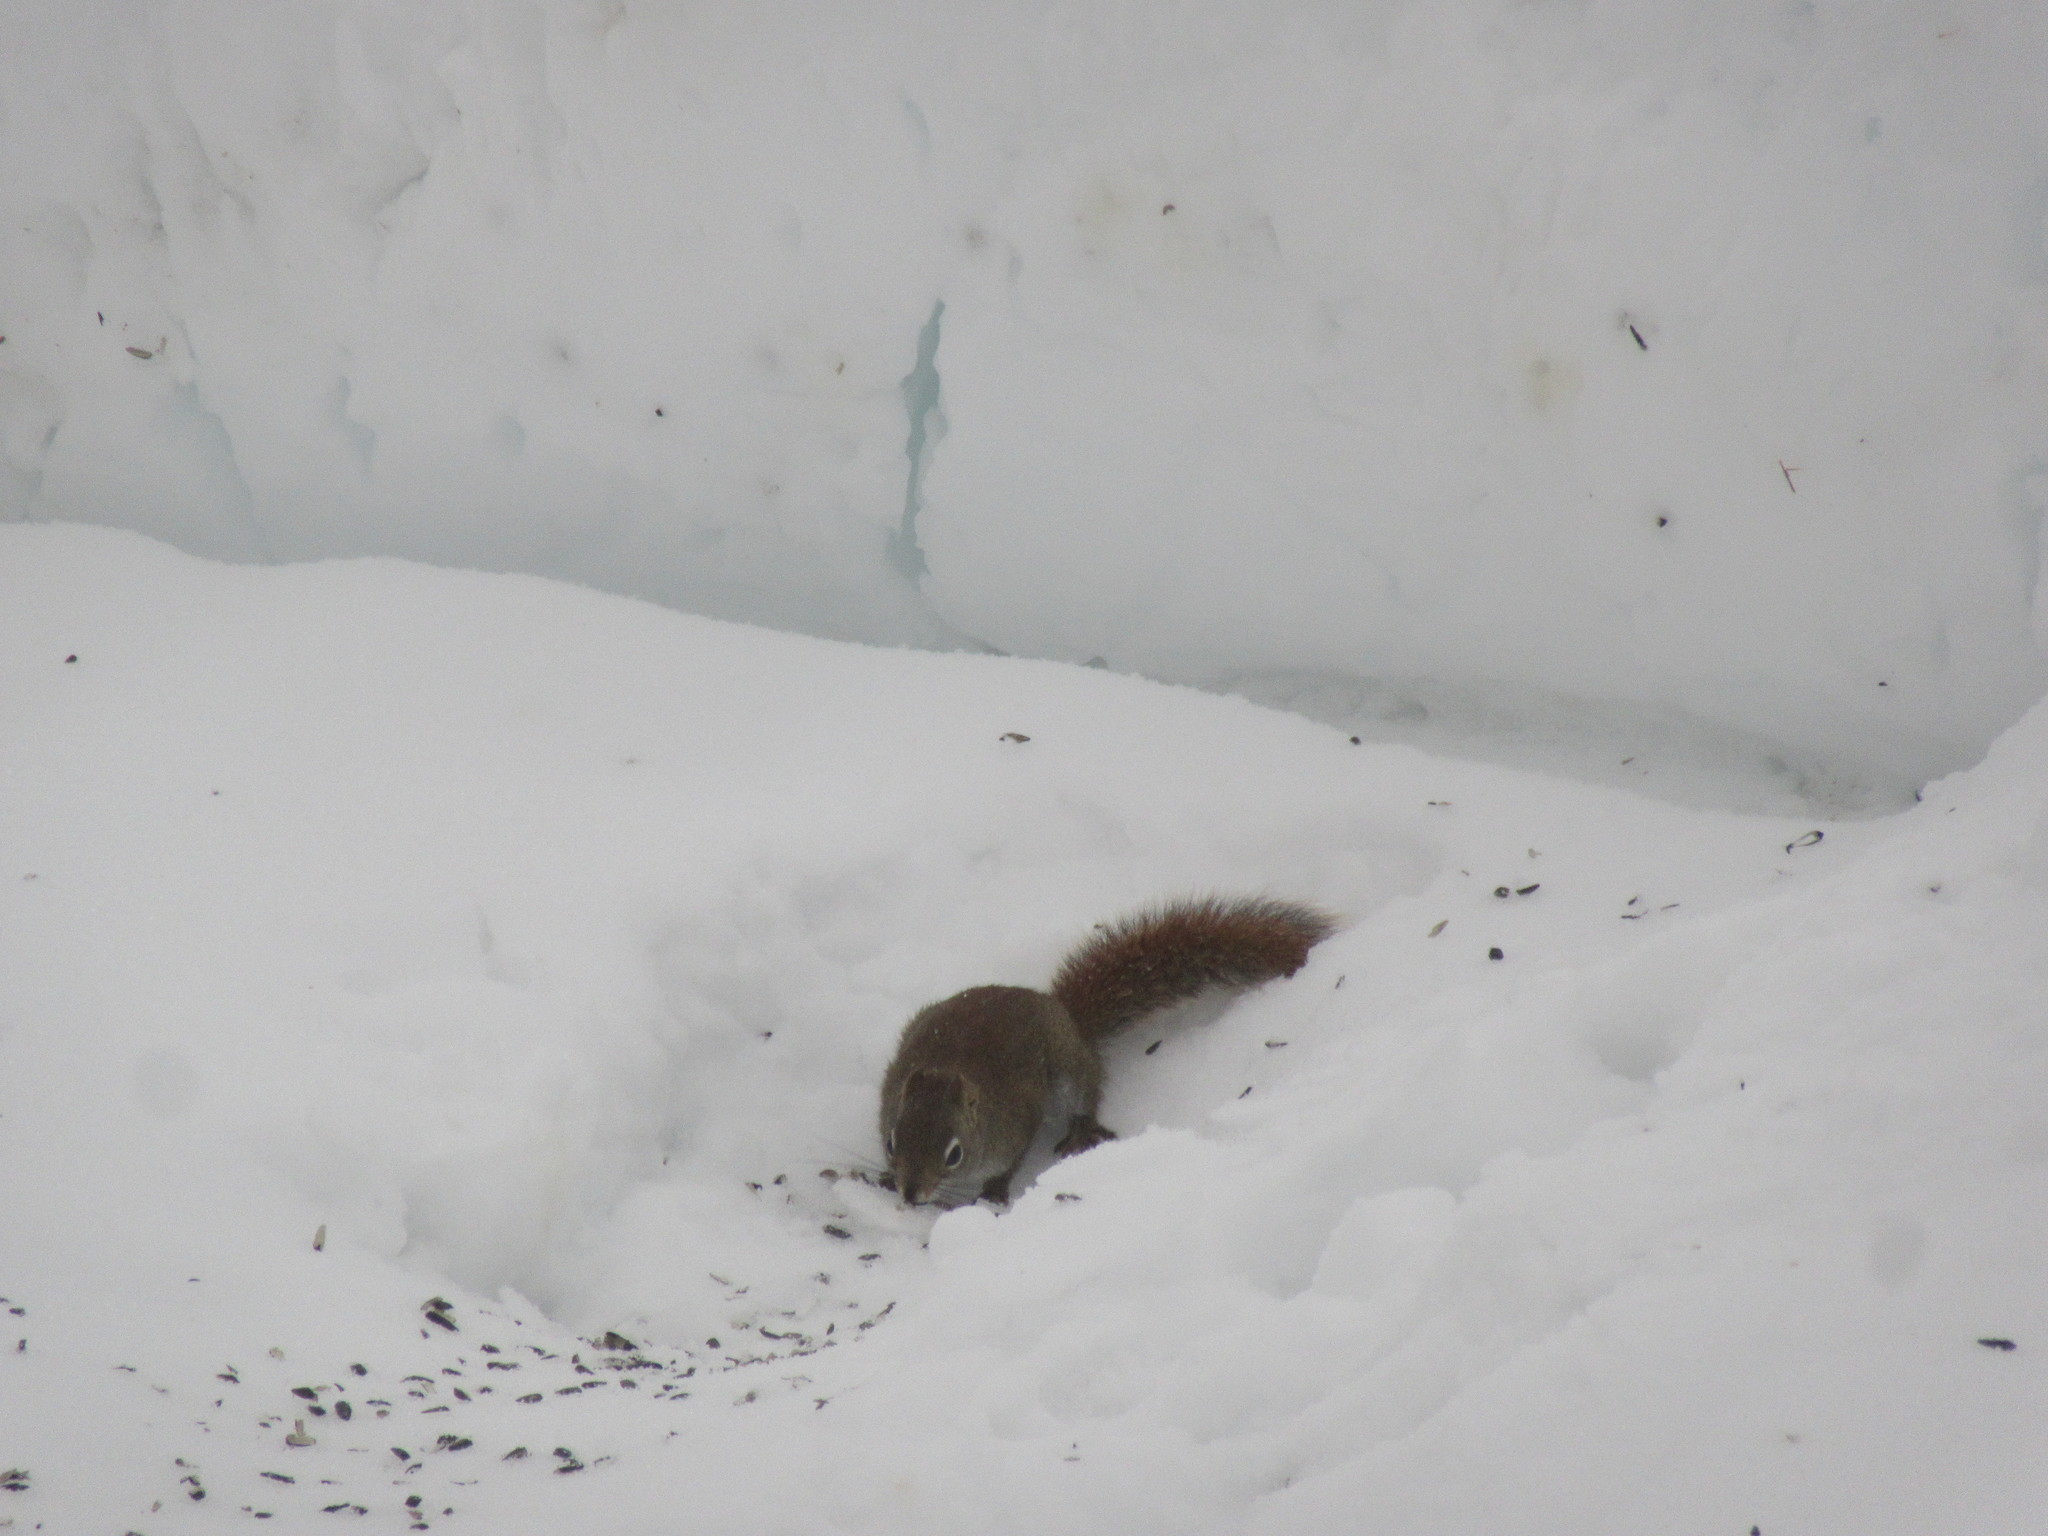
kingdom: Animalia
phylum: Chordata
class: Mammalia
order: Rodentia
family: Sciuridae
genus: Tamiasciurus
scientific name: Tamiasciurus hudsonicus
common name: Red squirrel
